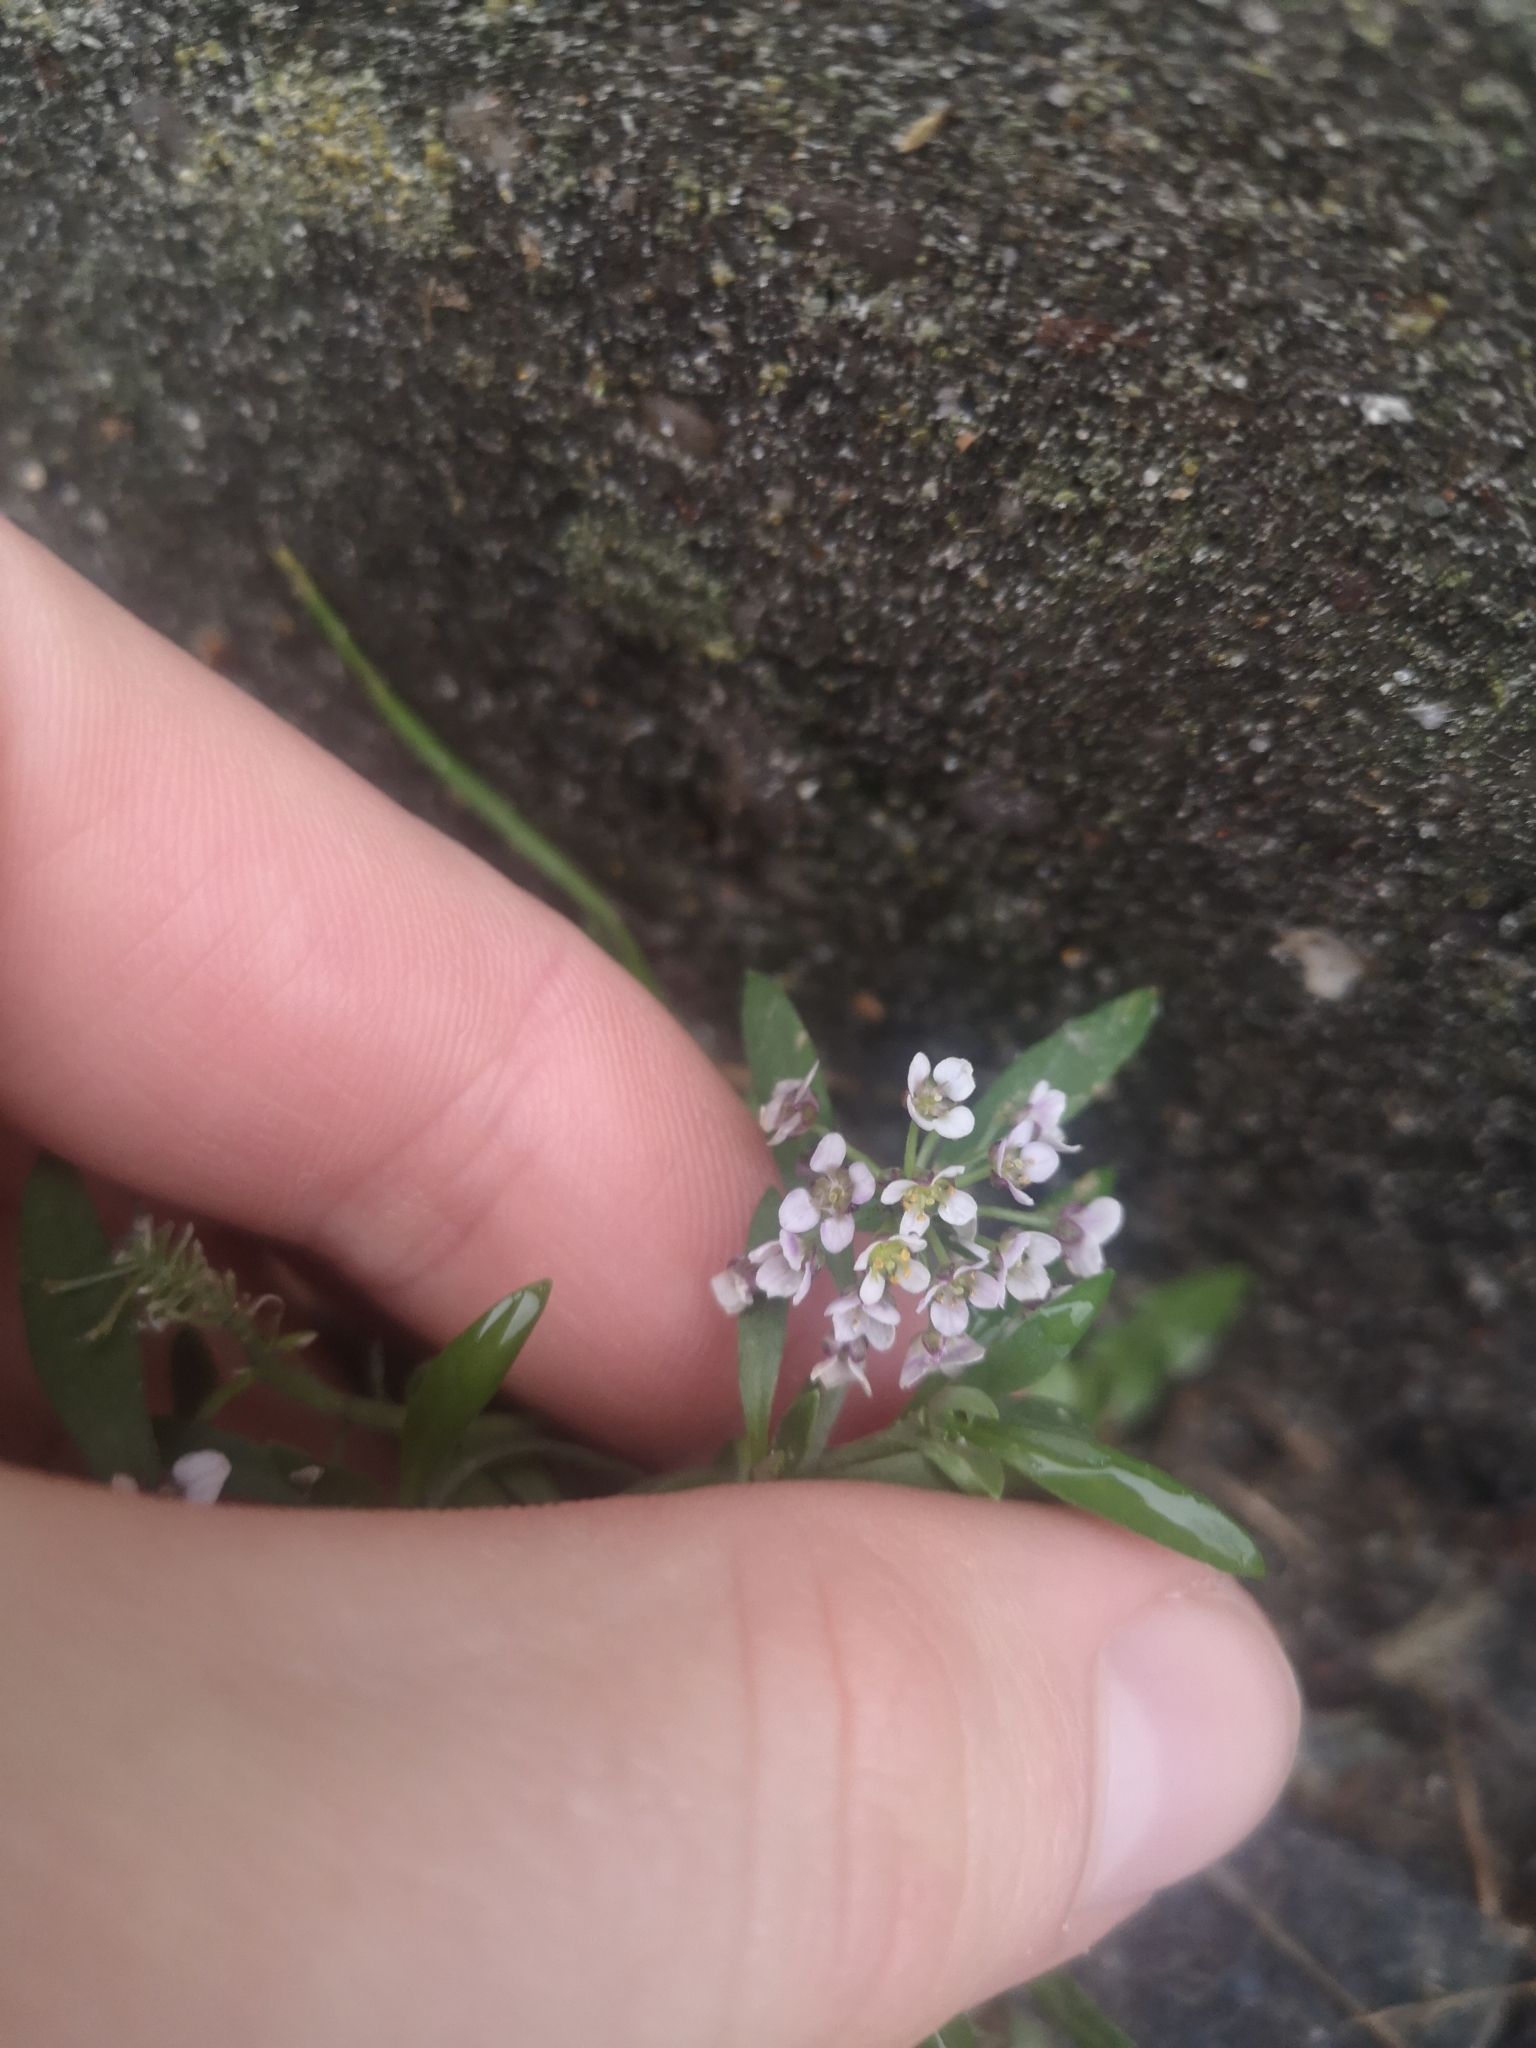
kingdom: Plantae
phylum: Tracheophyta
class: Magnoliopsida
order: Brassicales
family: Brassicaceae
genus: Lobularia
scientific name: Lobularia maritima
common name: Sweet alison
